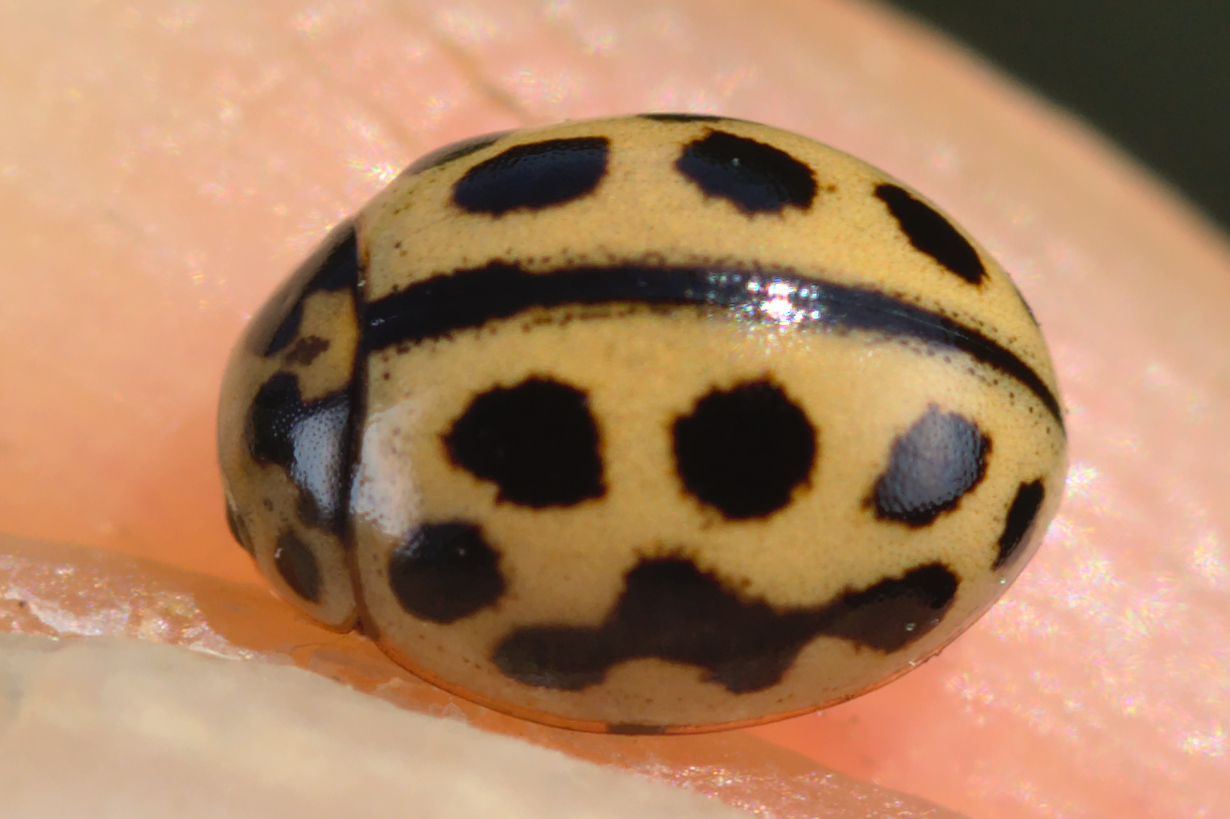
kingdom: Animalia
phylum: Arthropoda
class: Insecta
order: Coleoptera
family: Coccinellidae
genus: Tytthaspis
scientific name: Tytthaspis sedecimpunctata
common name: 16-spot ladybird
